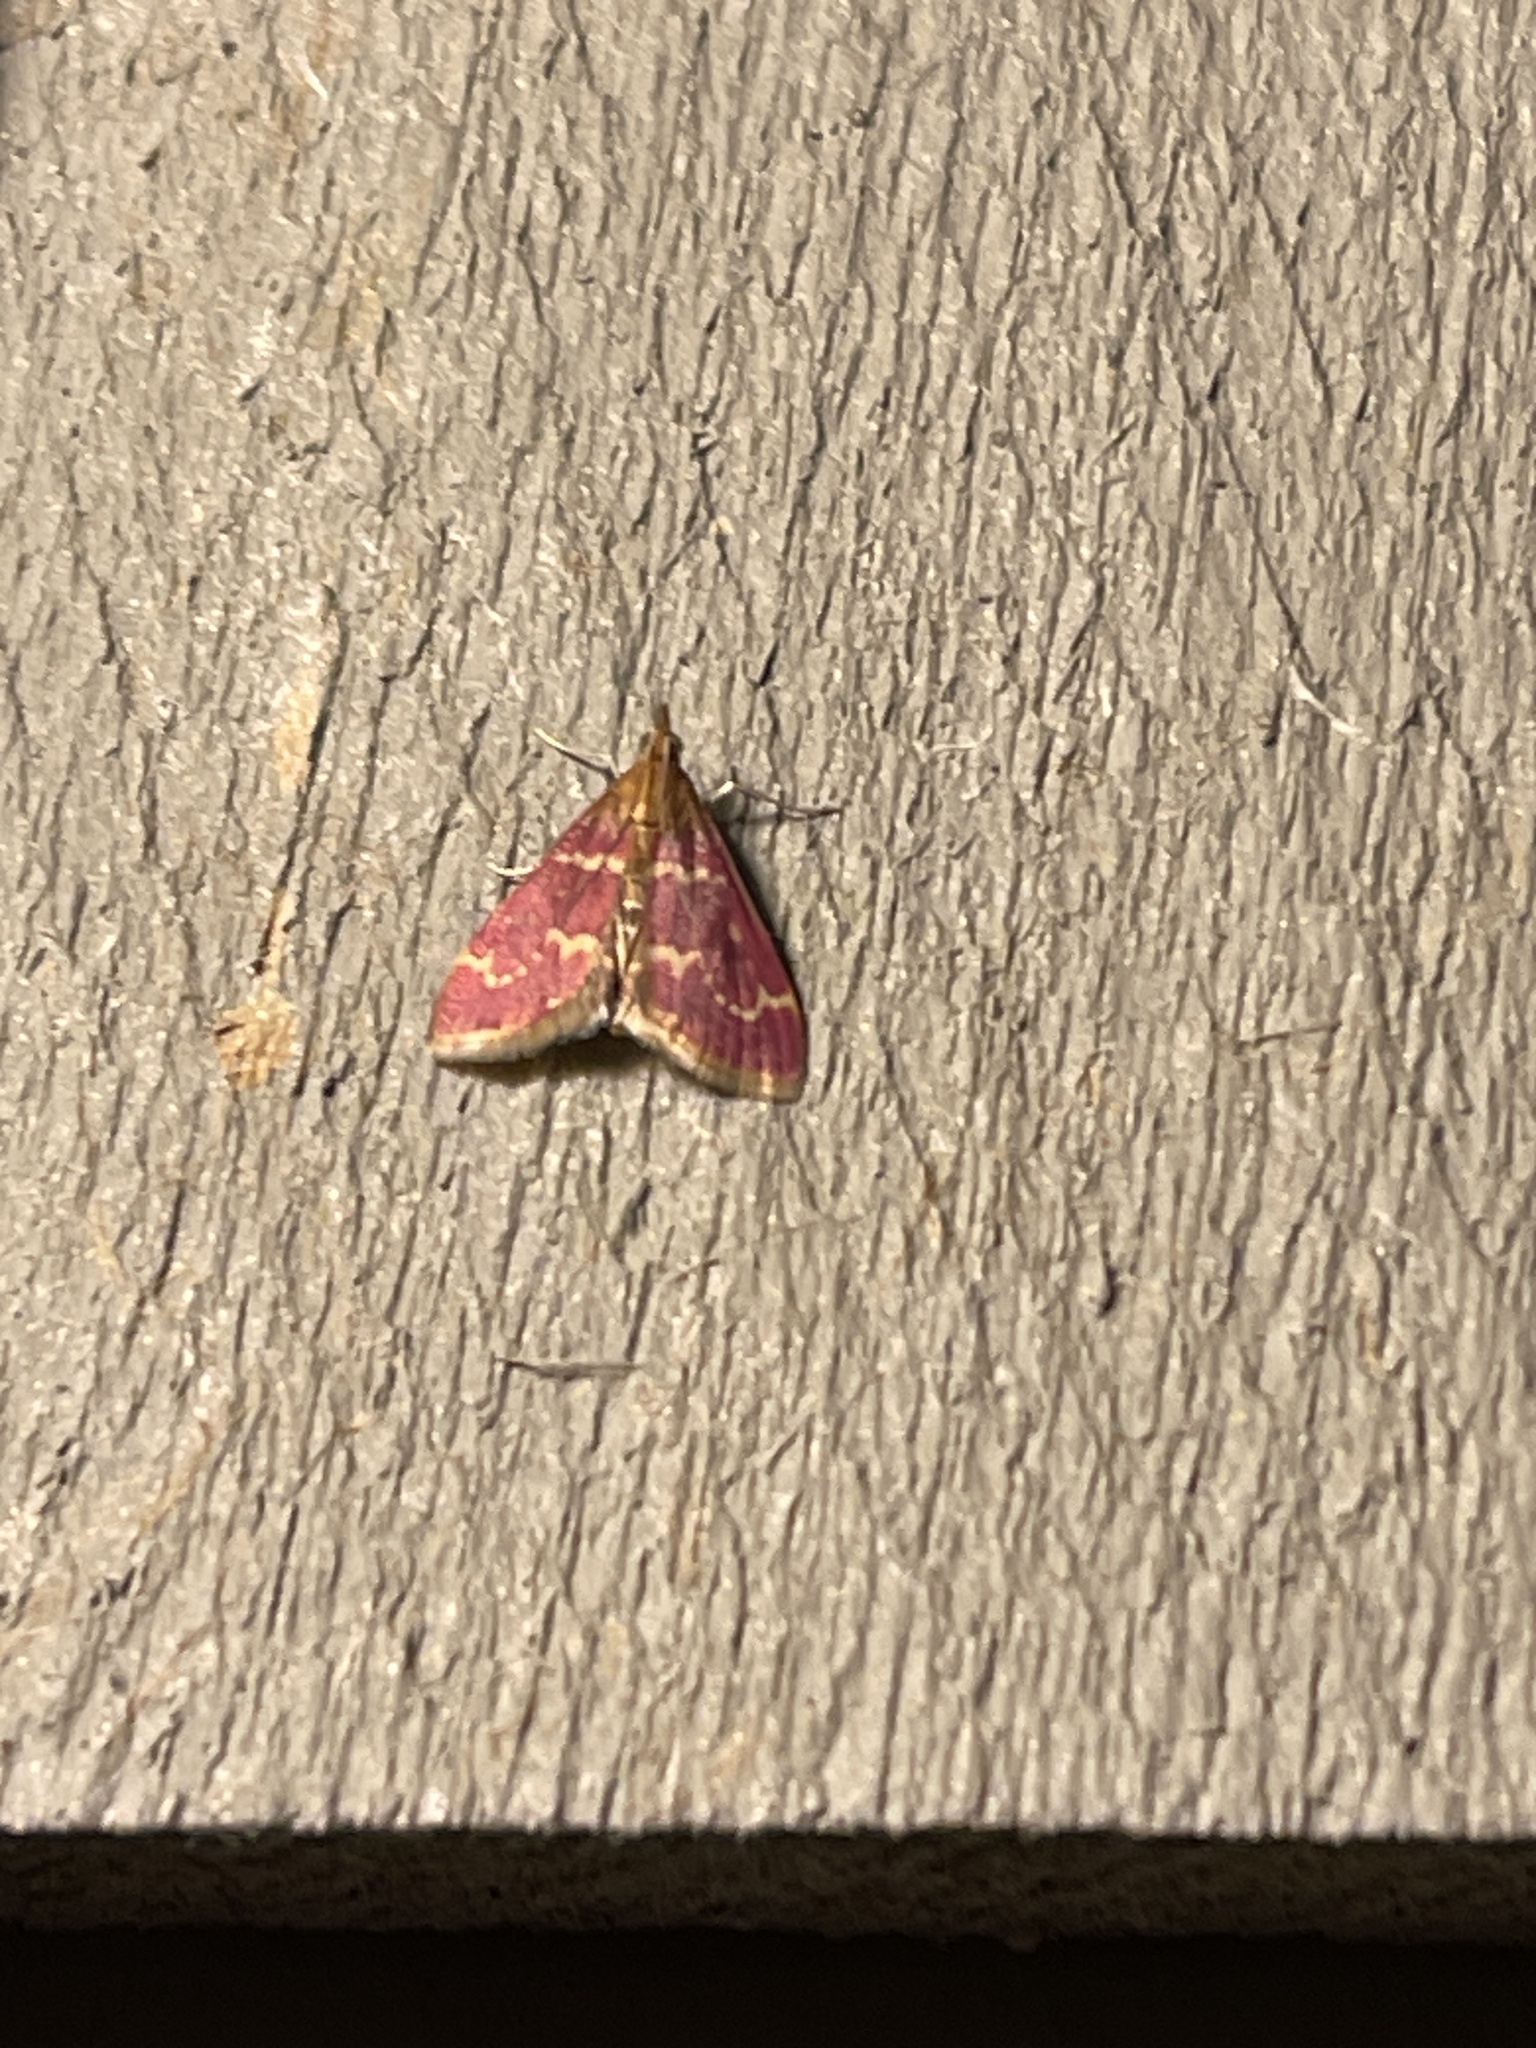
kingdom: Animalia
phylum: Arthropoda
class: Insecta
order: Lepidoptera
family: Crambidae
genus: Pyrausta
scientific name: Pyrausta signatalis
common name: Raspberry pyrausta moth
